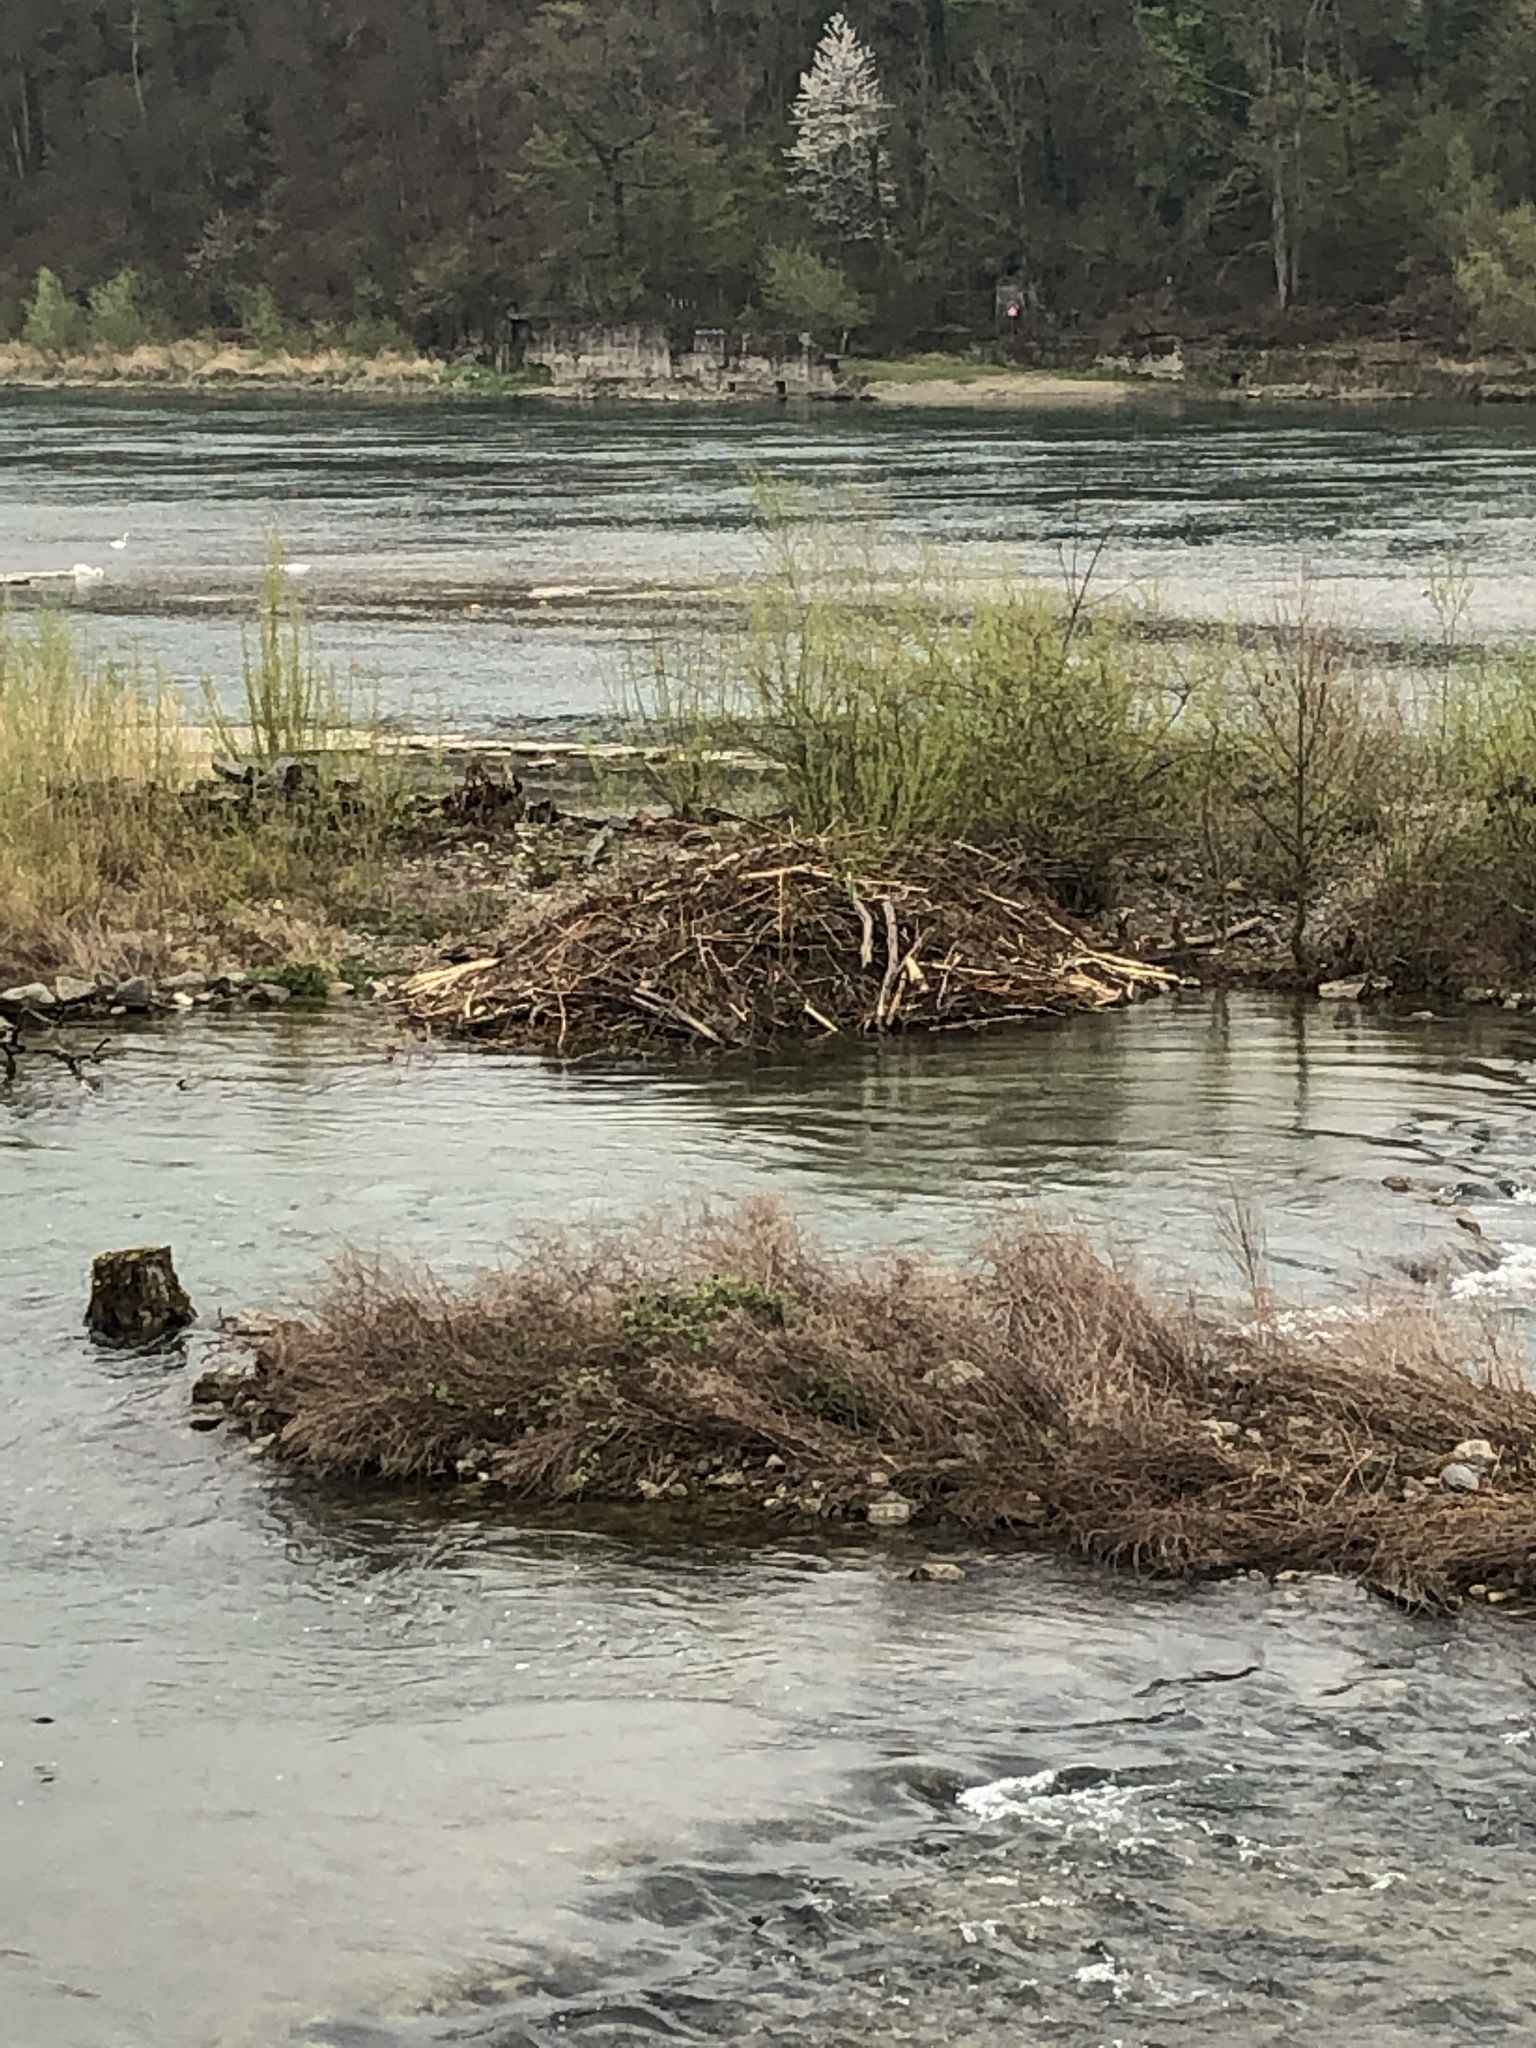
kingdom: Animalia
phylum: Chordata
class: Mammalia
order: Rodentia
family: Castoridae
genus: Castor
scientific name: Castor fiber
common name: Eurasian beaver
